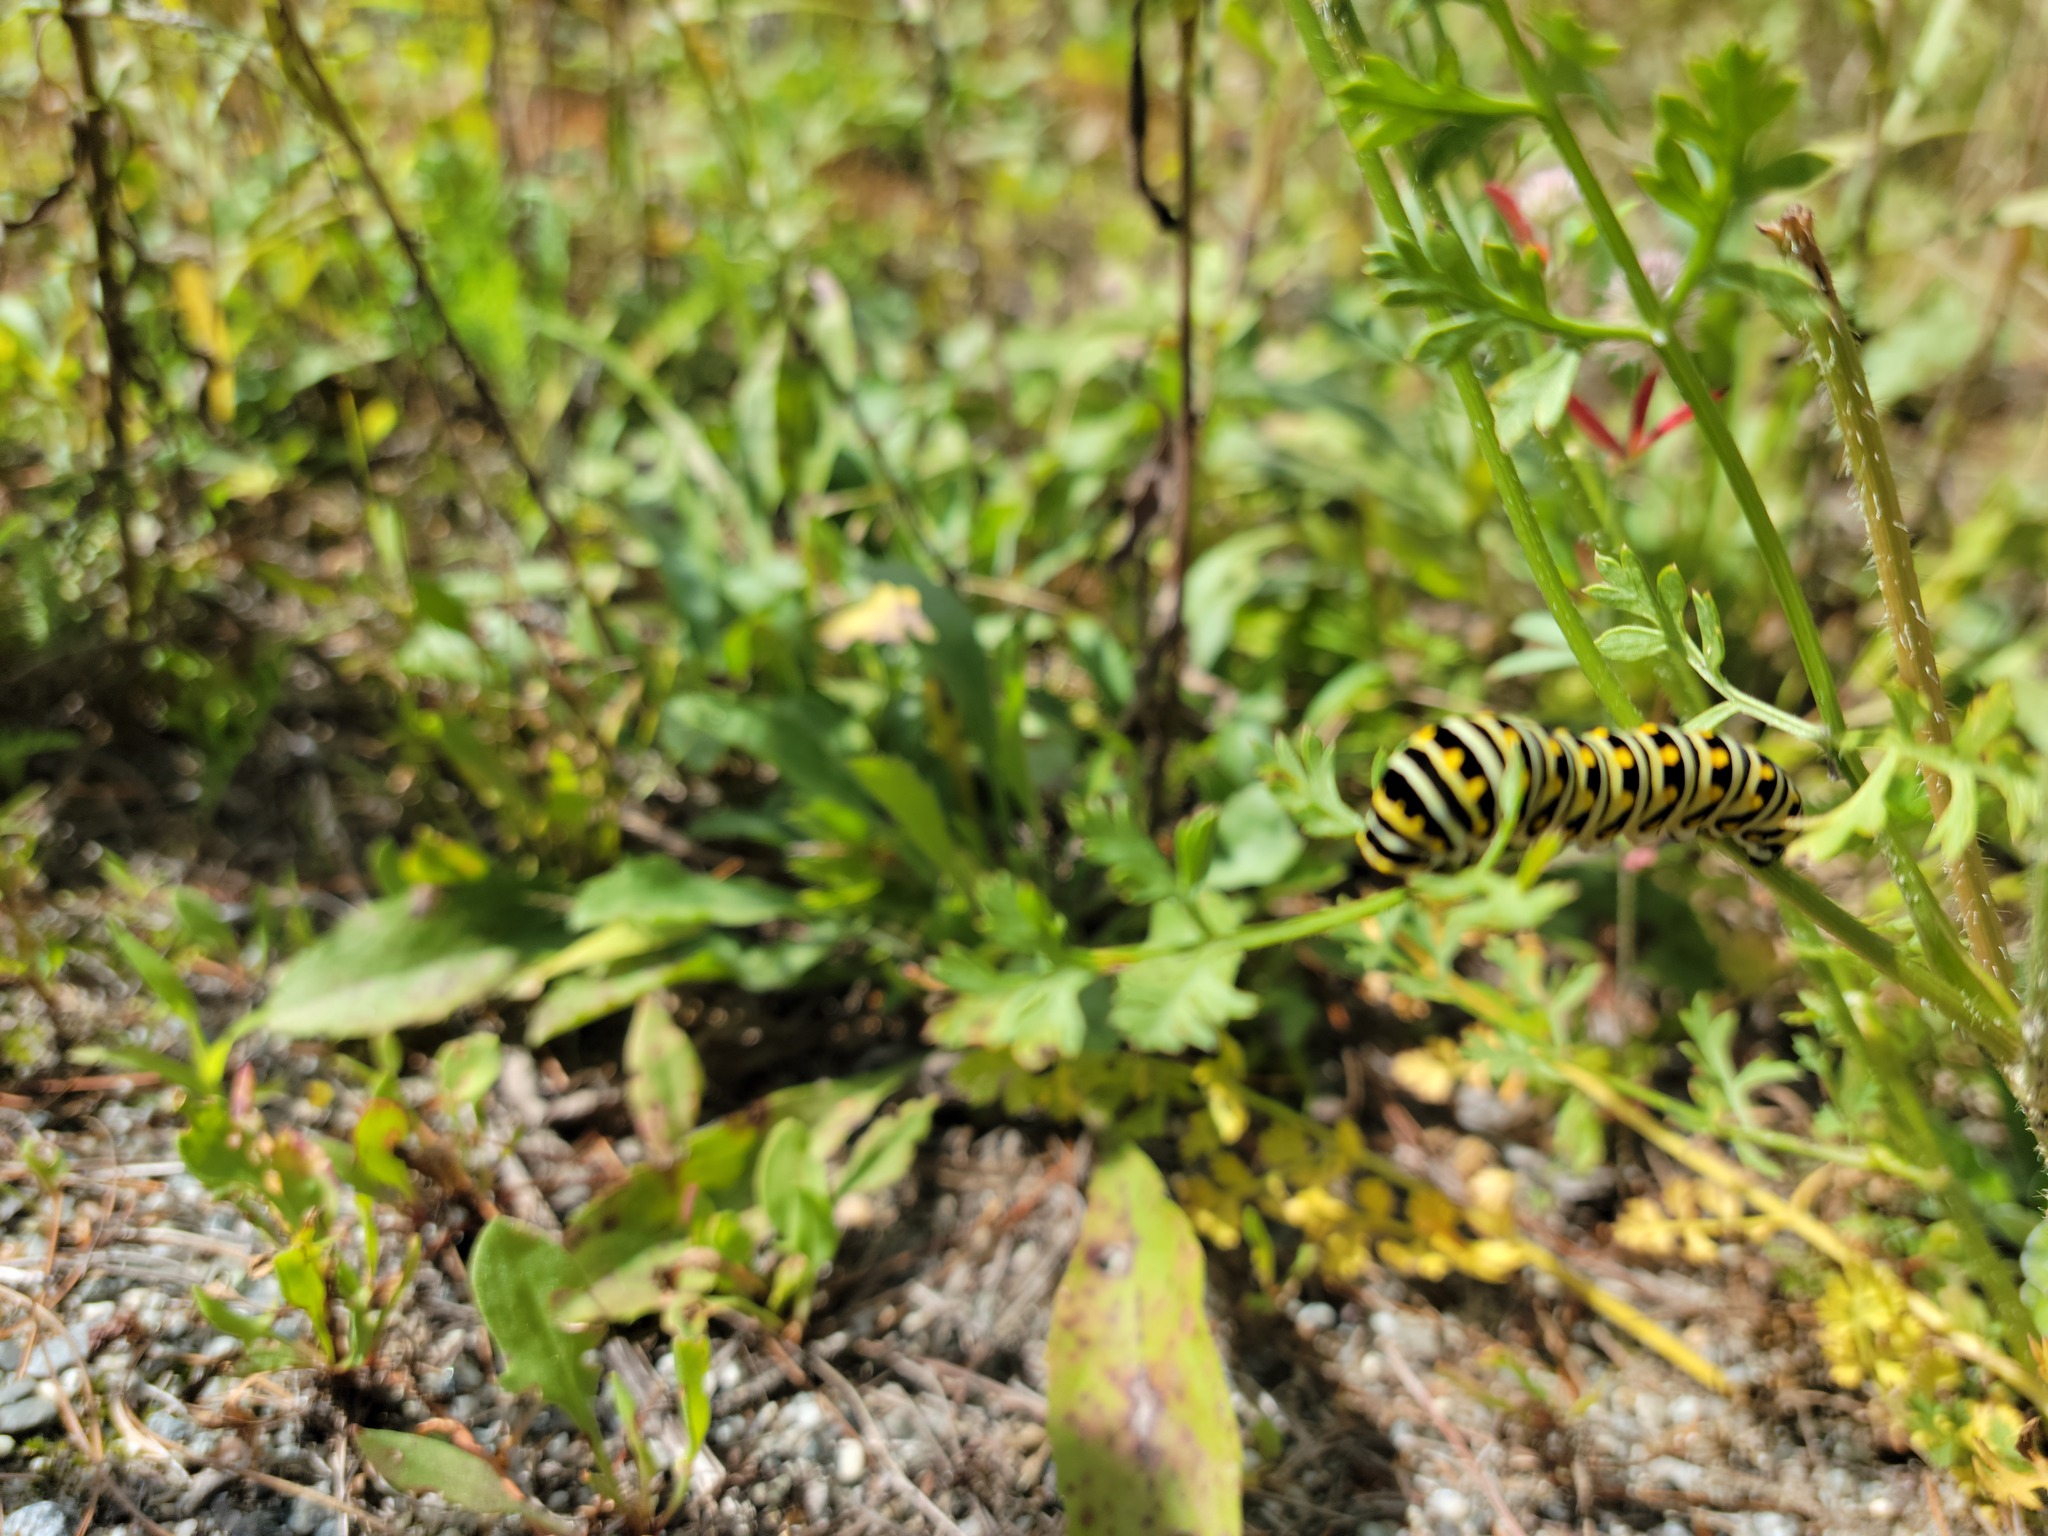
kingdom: Animalia
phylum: Arthropoda
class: Insecta
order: Lepidoptera
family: Papilionidae
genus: Papilio
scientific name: Papilio polyxenes
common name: Black swallowtail
